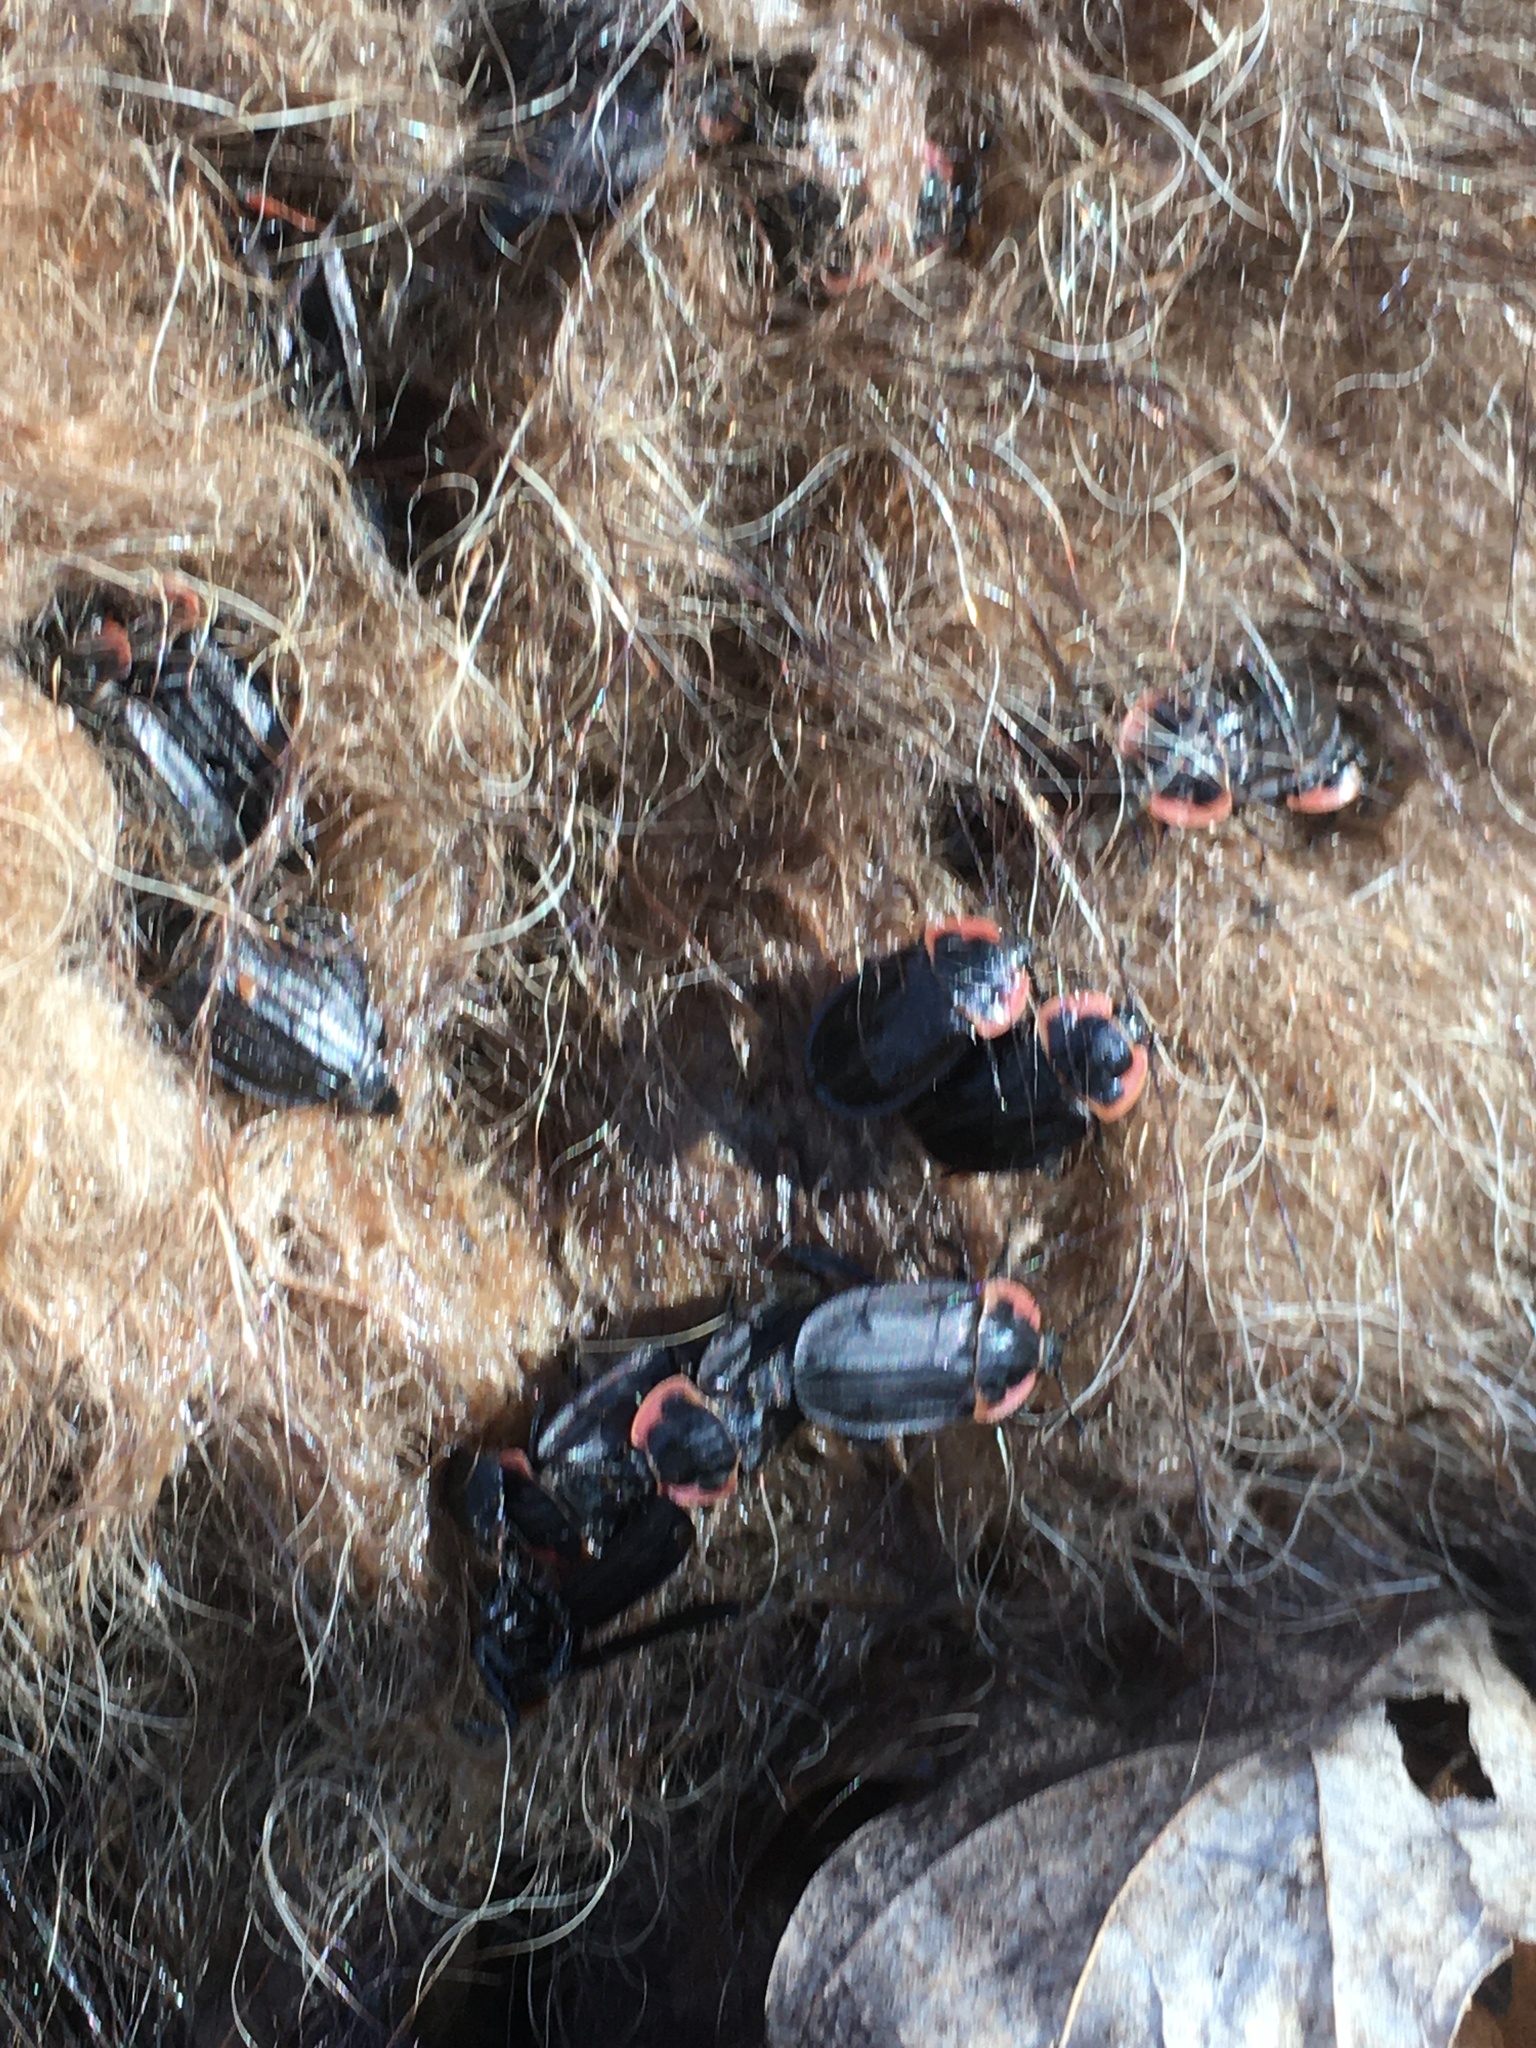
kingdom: Animalia
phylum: Arthropoda
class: Insecta
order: Coleoptera
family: Staphylinidae
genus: Oiceoptoma
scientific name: Oiceoptoma noveboracense
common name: Margined carrion beetle
